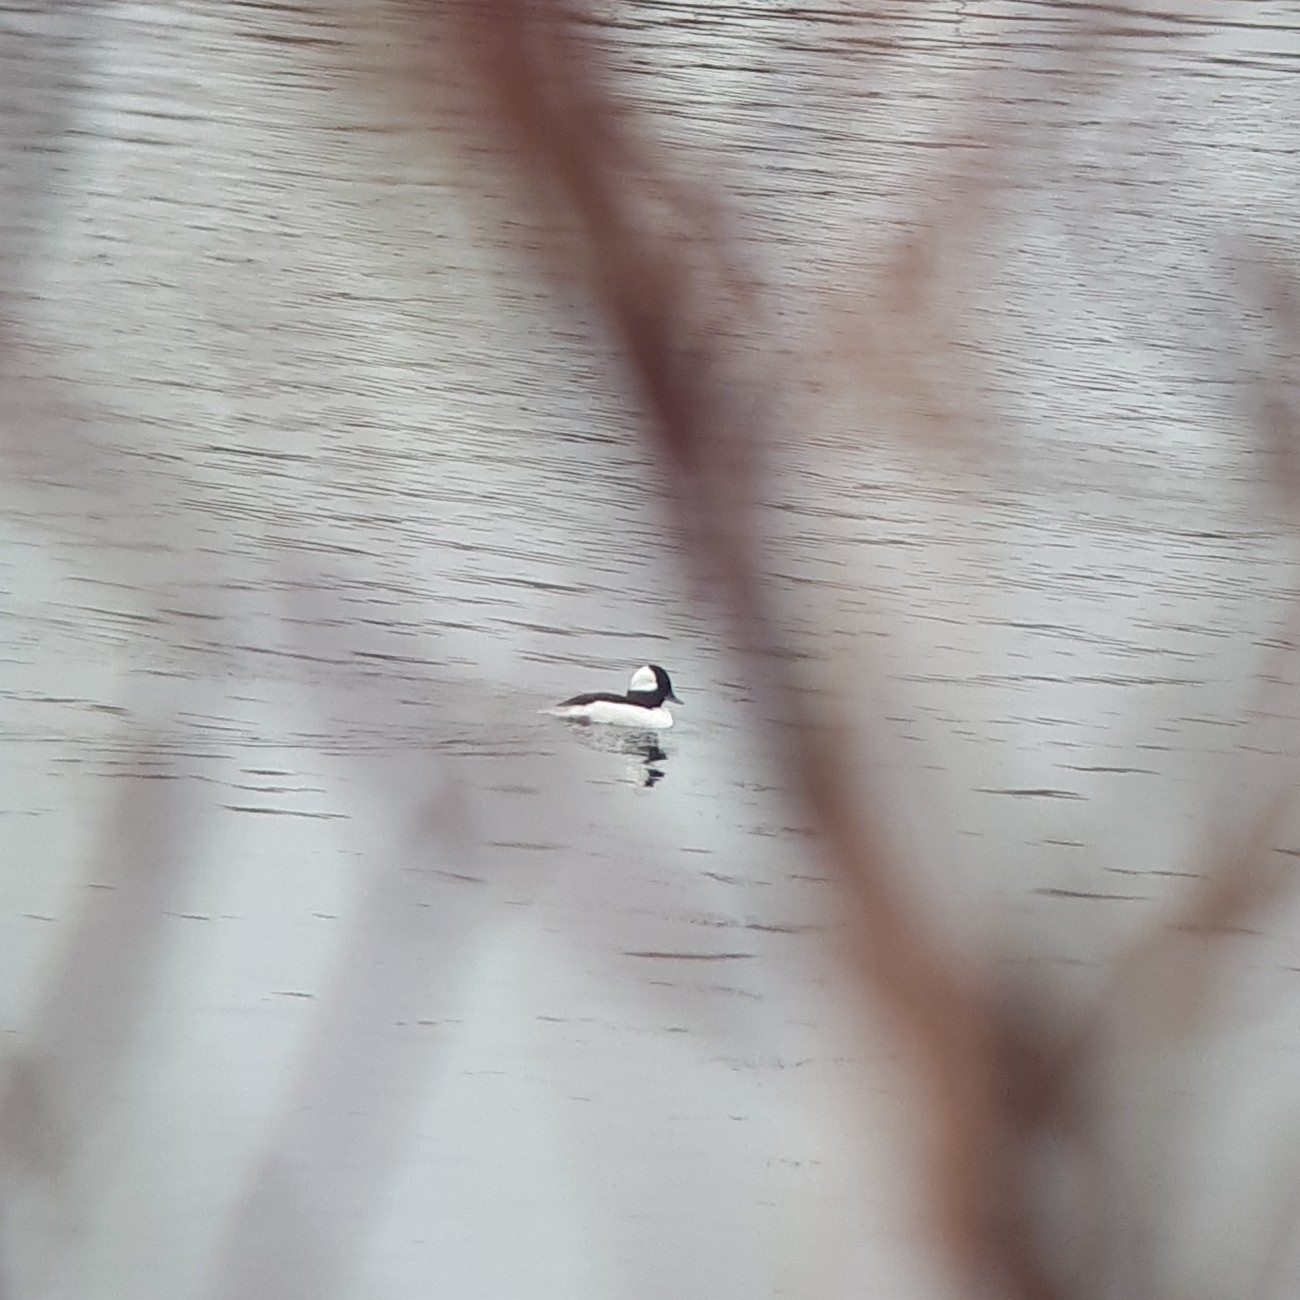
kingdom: Animalia
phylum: Chordata
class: Aves
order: Anseriformes
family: Anatidae
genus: Bucephala
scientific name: Bucephala albeola
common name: Bufflehead
